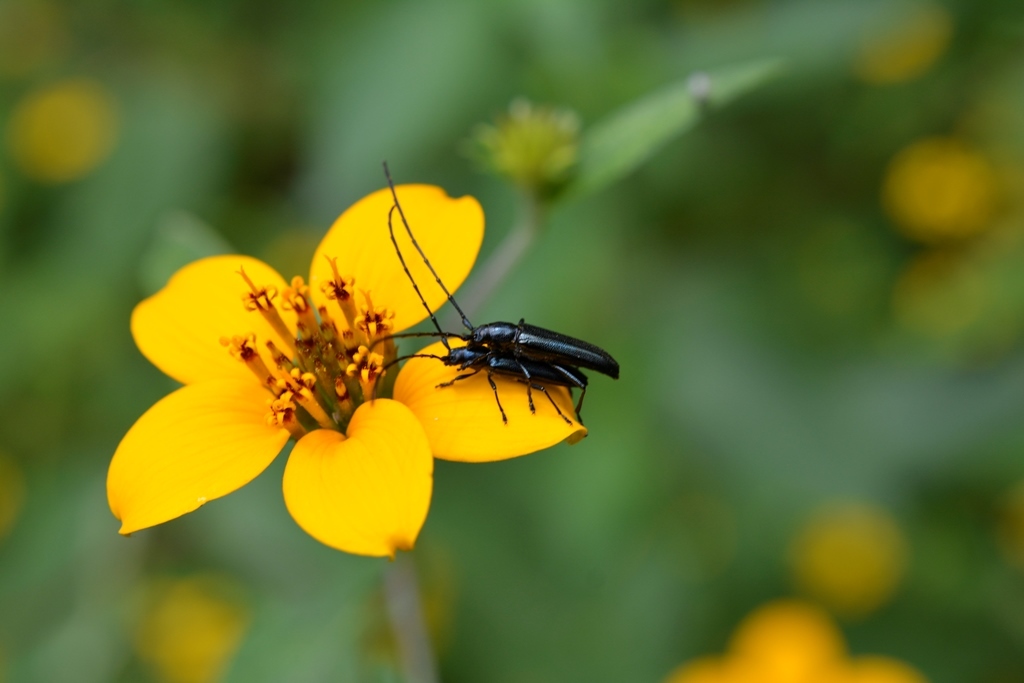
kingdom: Animalia
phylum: Arthropoda
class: Insecta
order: Coleoptera
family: Cerambycidae
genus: Ischnocnemis
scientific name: Ischnocnemis caerulescens
